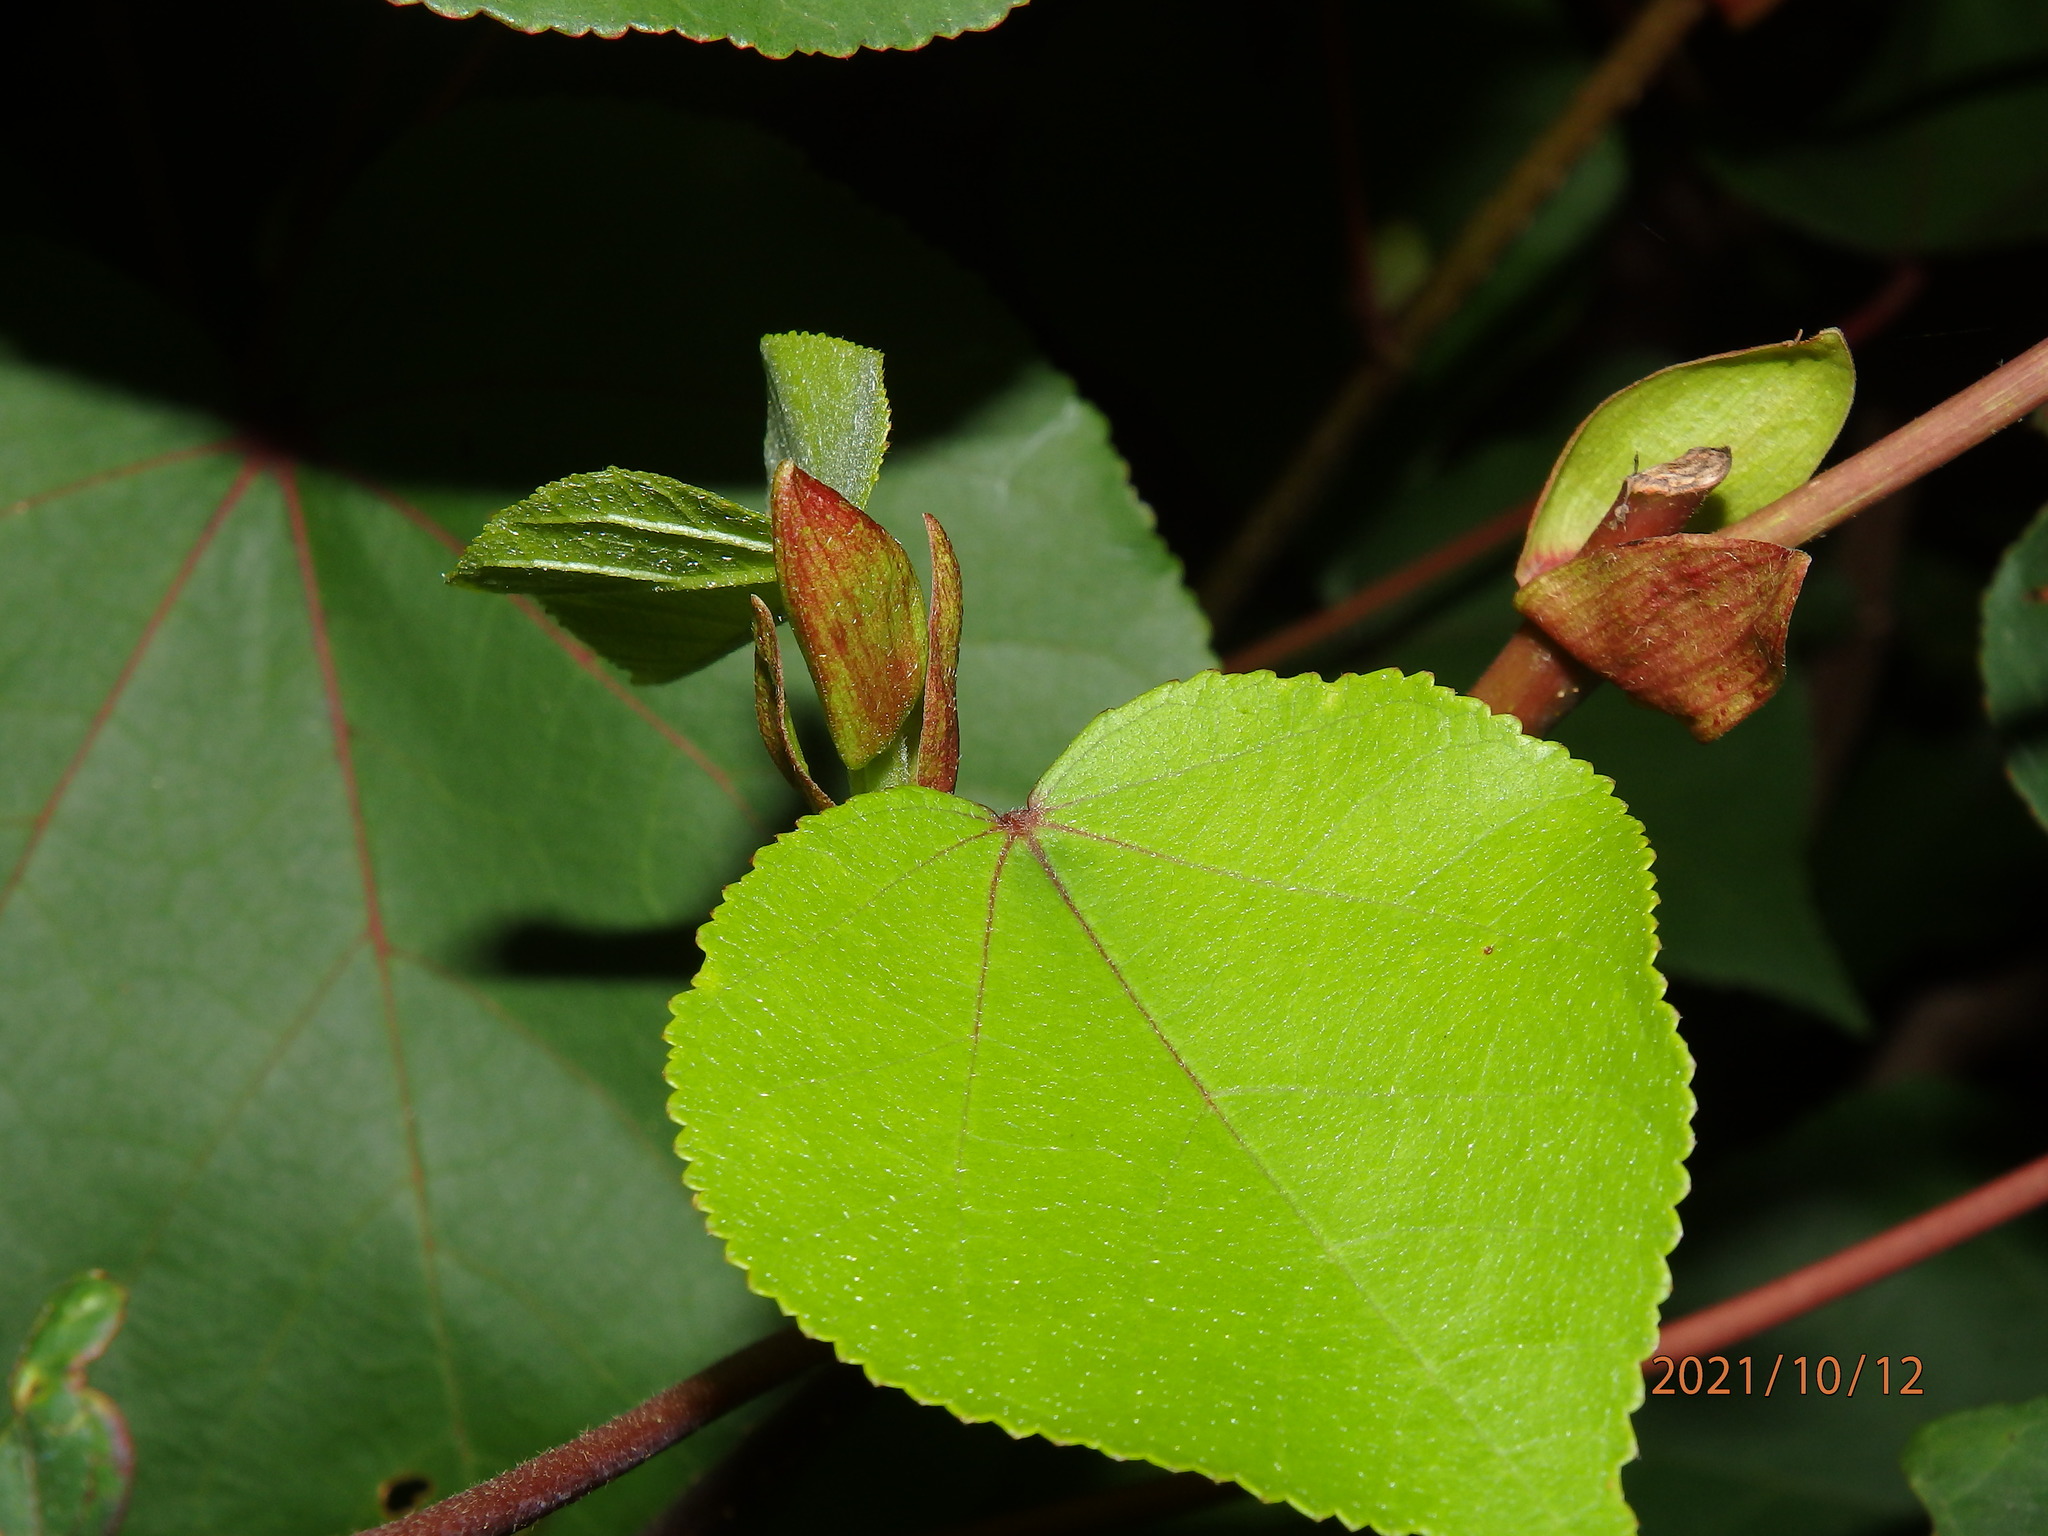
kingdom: Plantae
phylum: Tracheophyta
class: Magnoliopsida
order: Malvales
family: Malvaceae
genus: Talipariti
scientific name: Talipariti tiliaceum
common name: Sea hibiscus
